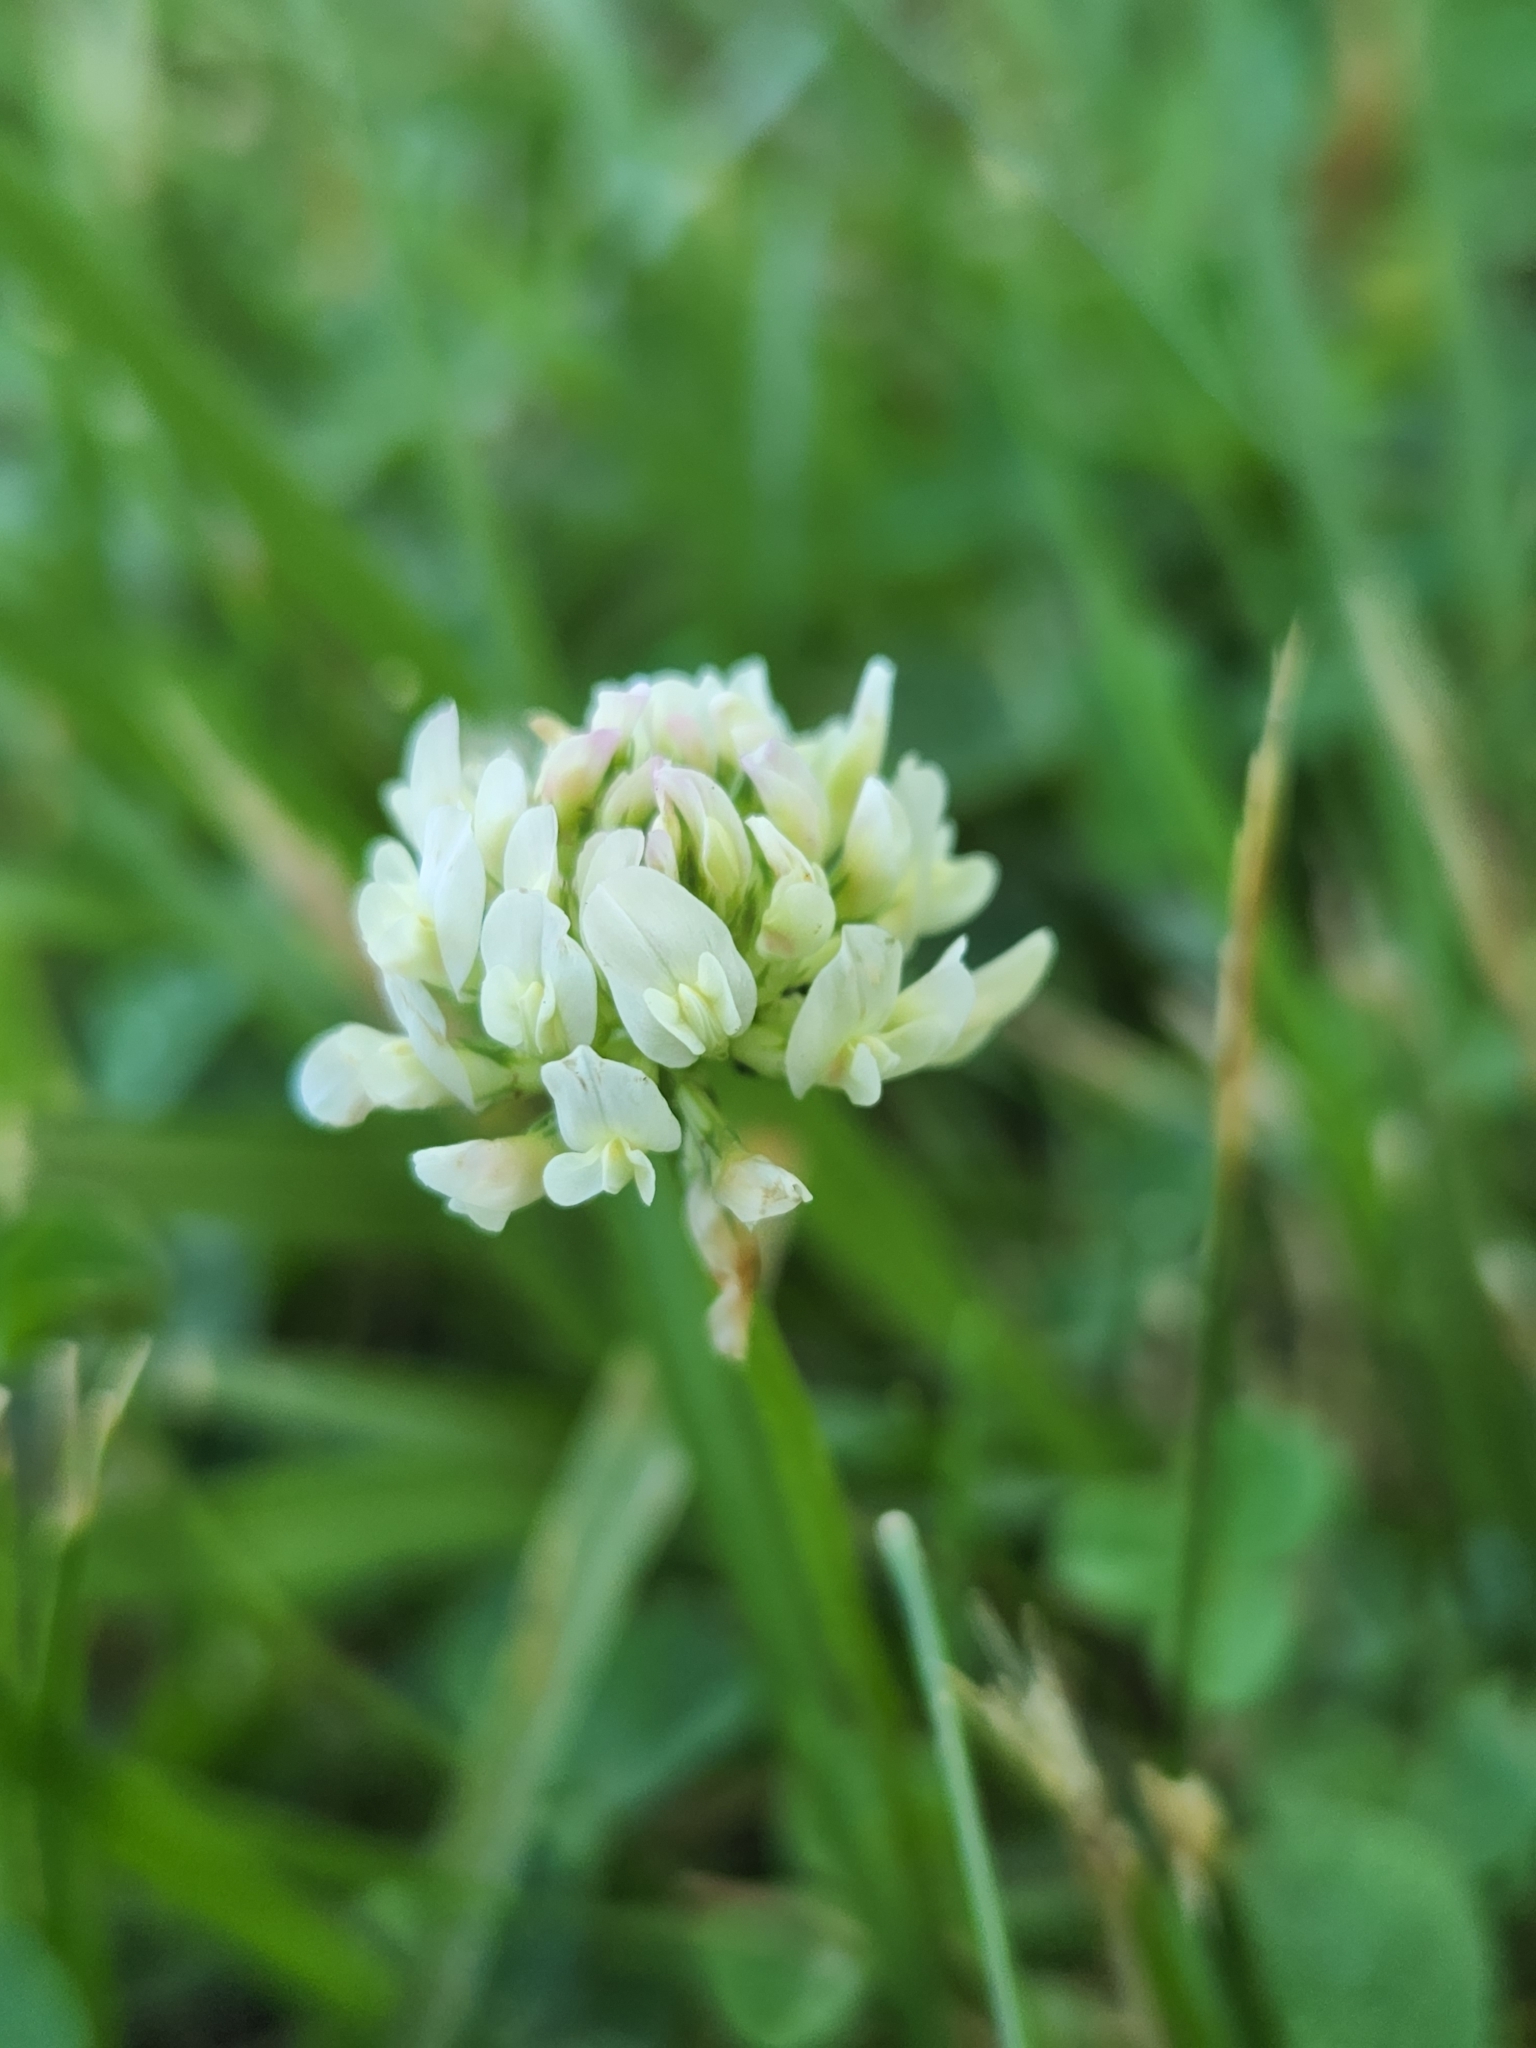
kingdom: Plantae
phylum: Tracheophyta
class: Magnoliopsida
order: Fabales
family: Fabaceae
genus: Trifolium
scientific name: Trifolium repens
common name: White clover
